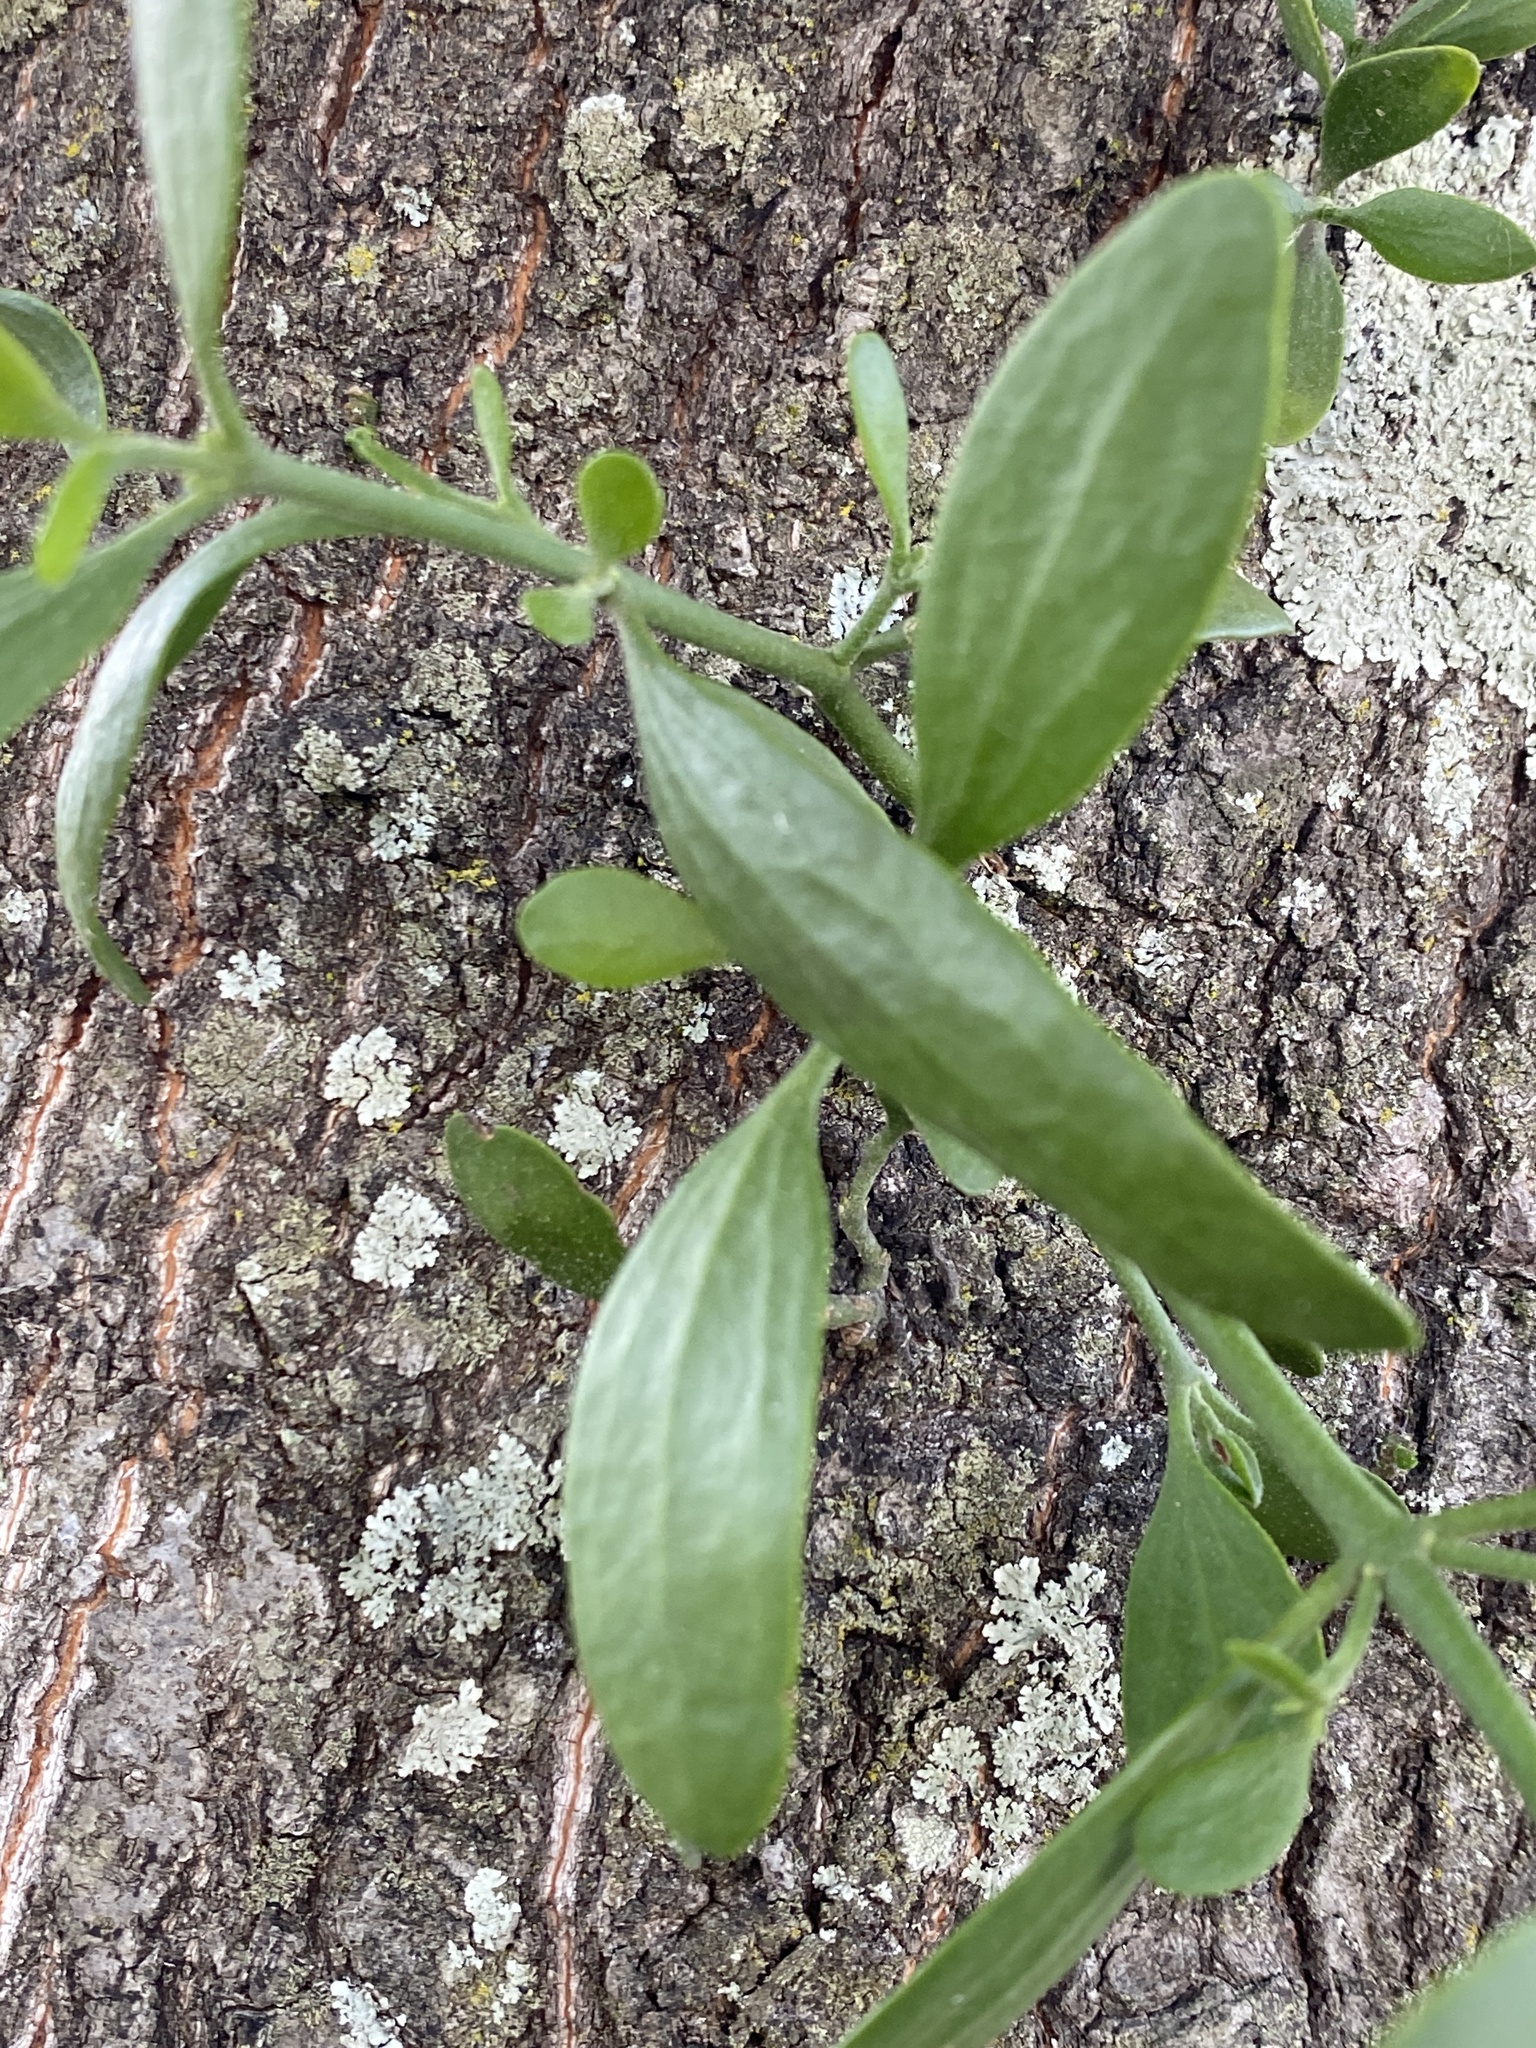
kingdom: Plantae
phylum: Tracheophyta
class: Magnoliopsida
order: Santalales
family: Viscaceae
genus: Phoradendron
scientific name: Phoradendron leucarpum
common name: Pacific mistletoe
